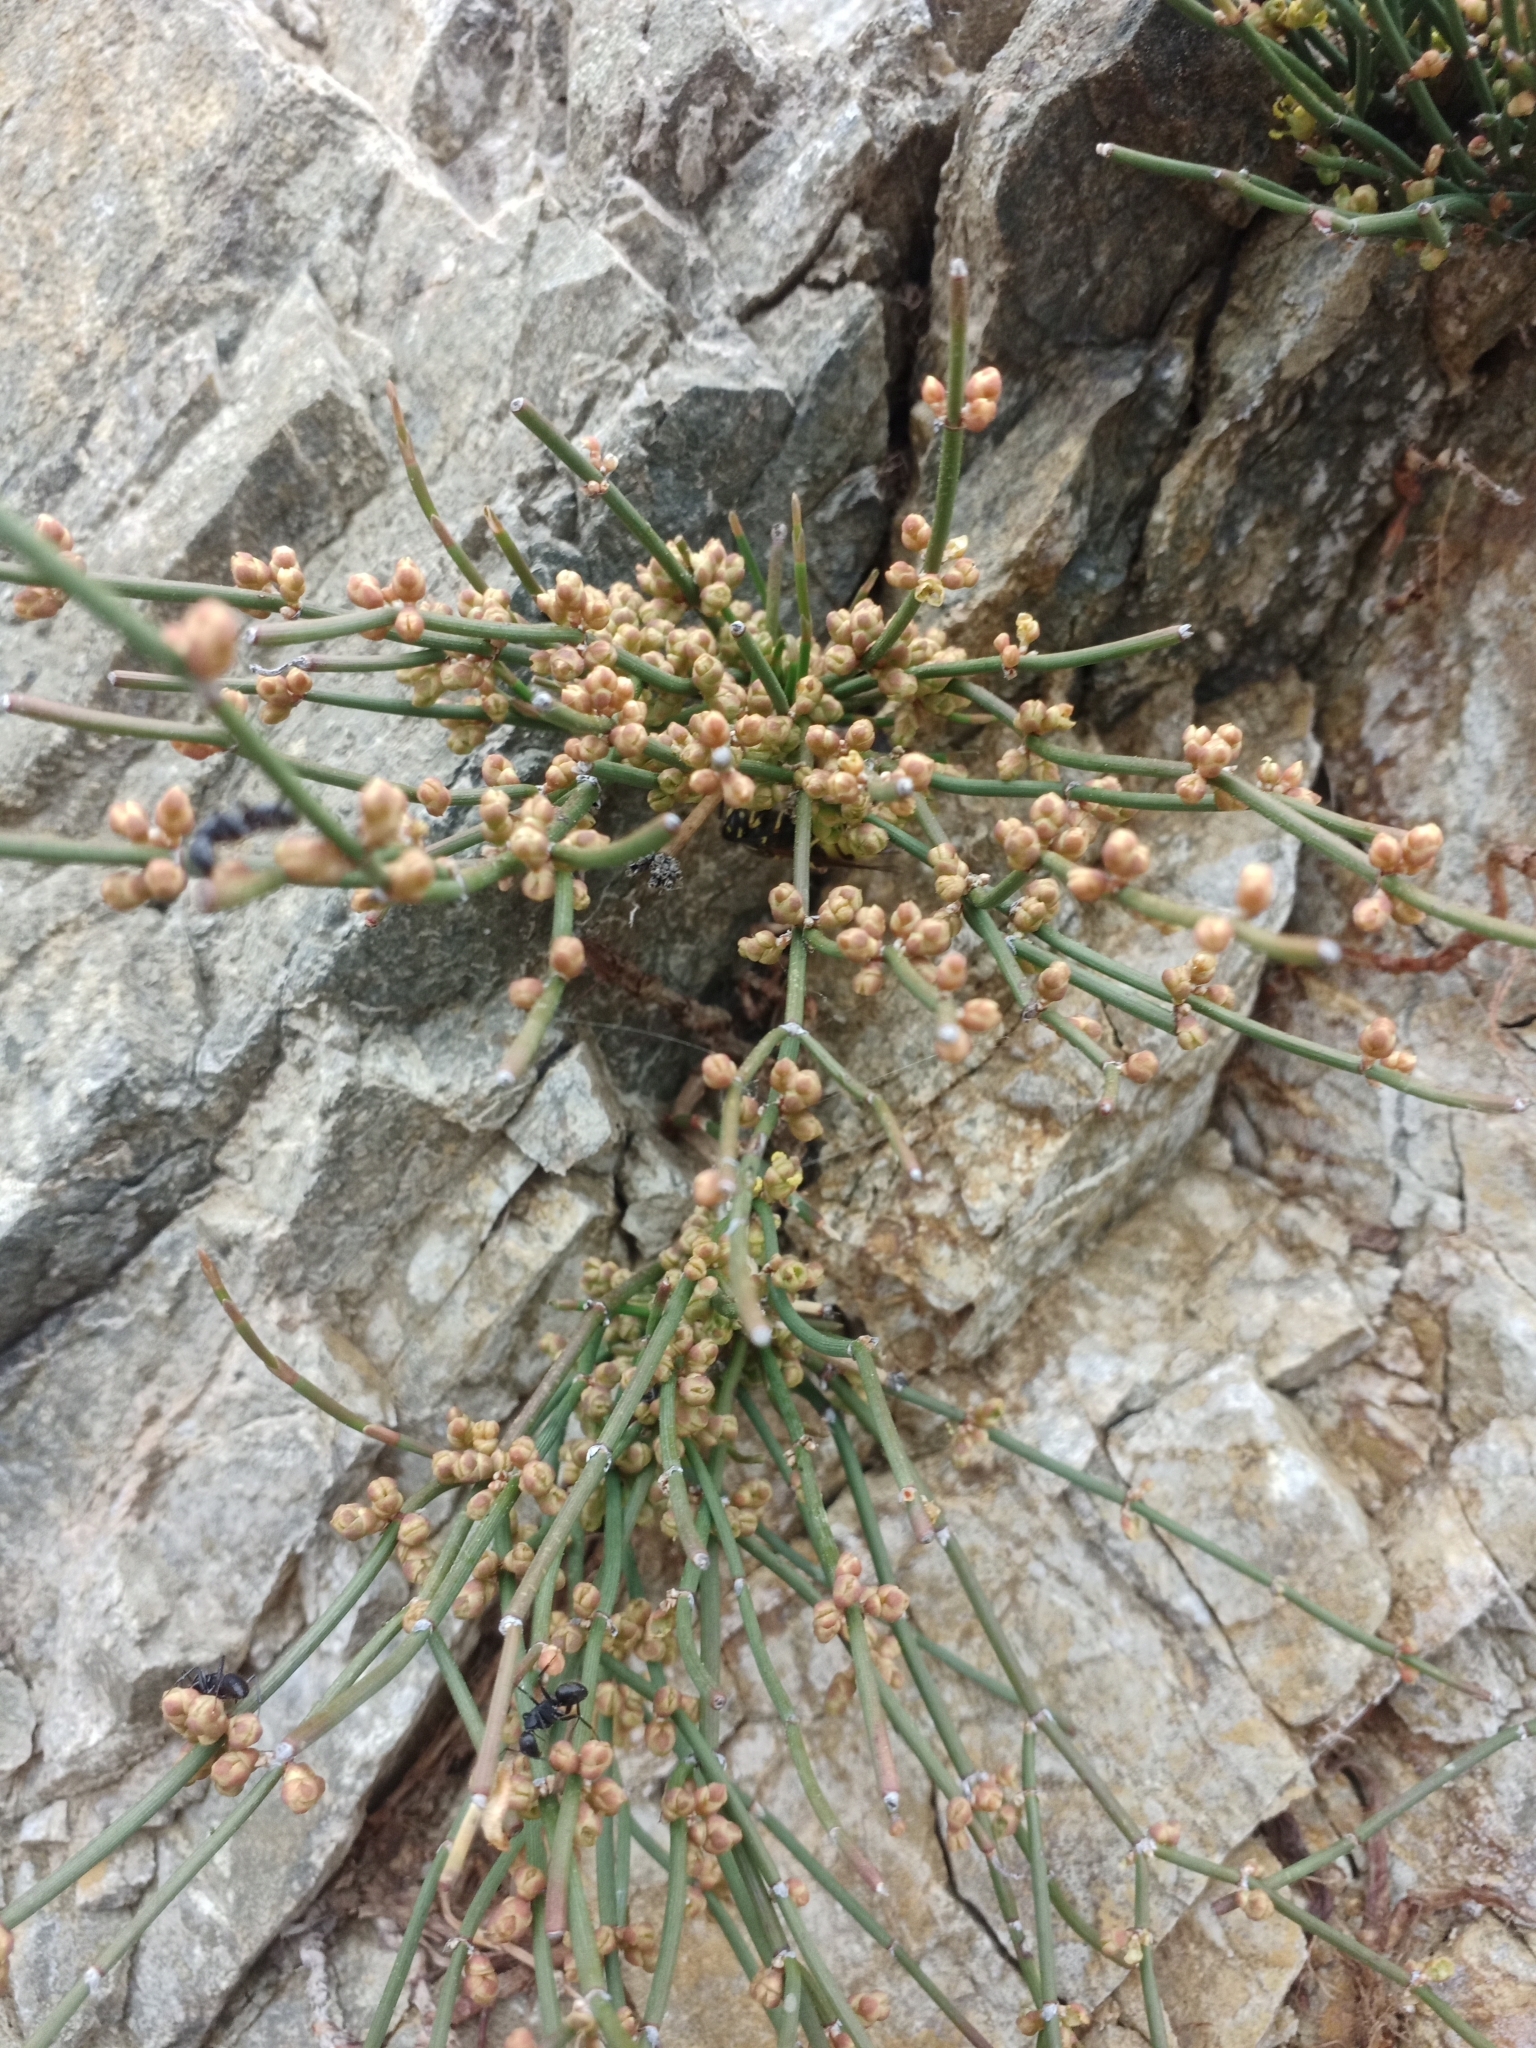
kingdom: Plantae
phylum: Tracheophyta
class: Gnetopsida
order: Ephedrales
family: Ephedraceae
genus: Ephedra
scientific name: Ephedra monosperma
